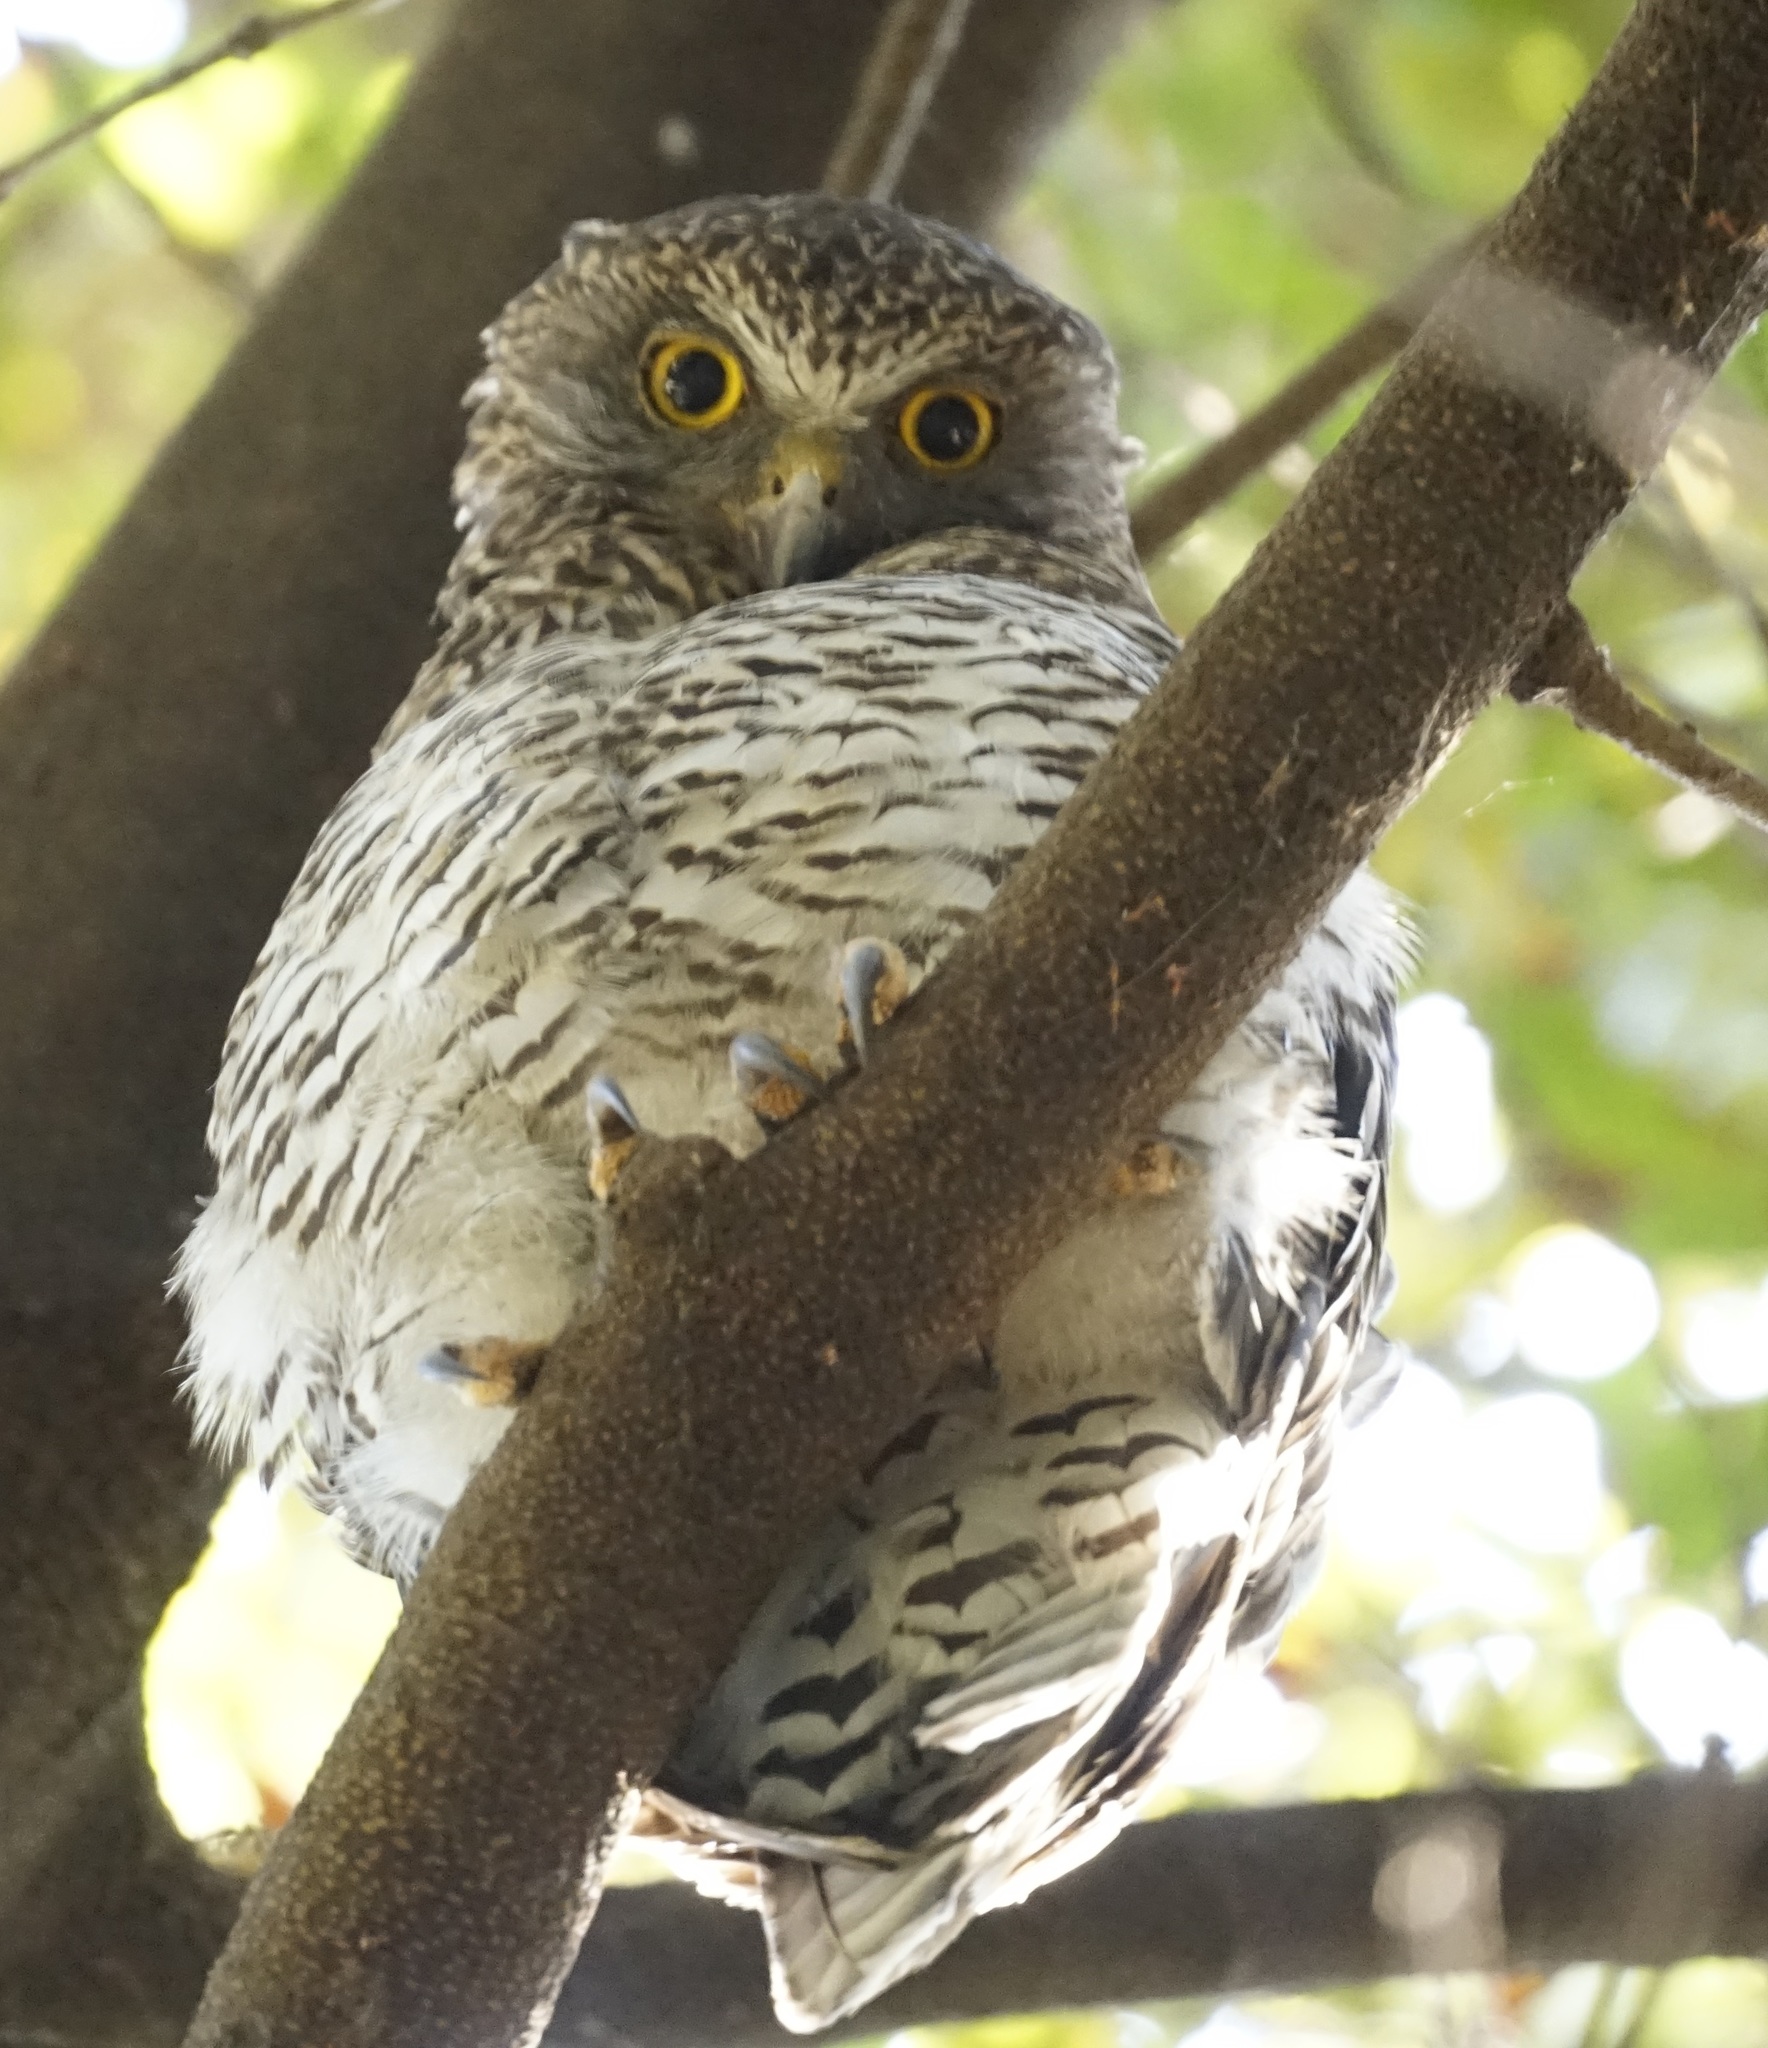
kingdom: Animalia
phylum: Chordata
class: Aves
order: Strigiformes
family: Strigidae
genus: Ninox
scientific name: Ninox strenua
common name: Powerful owl
